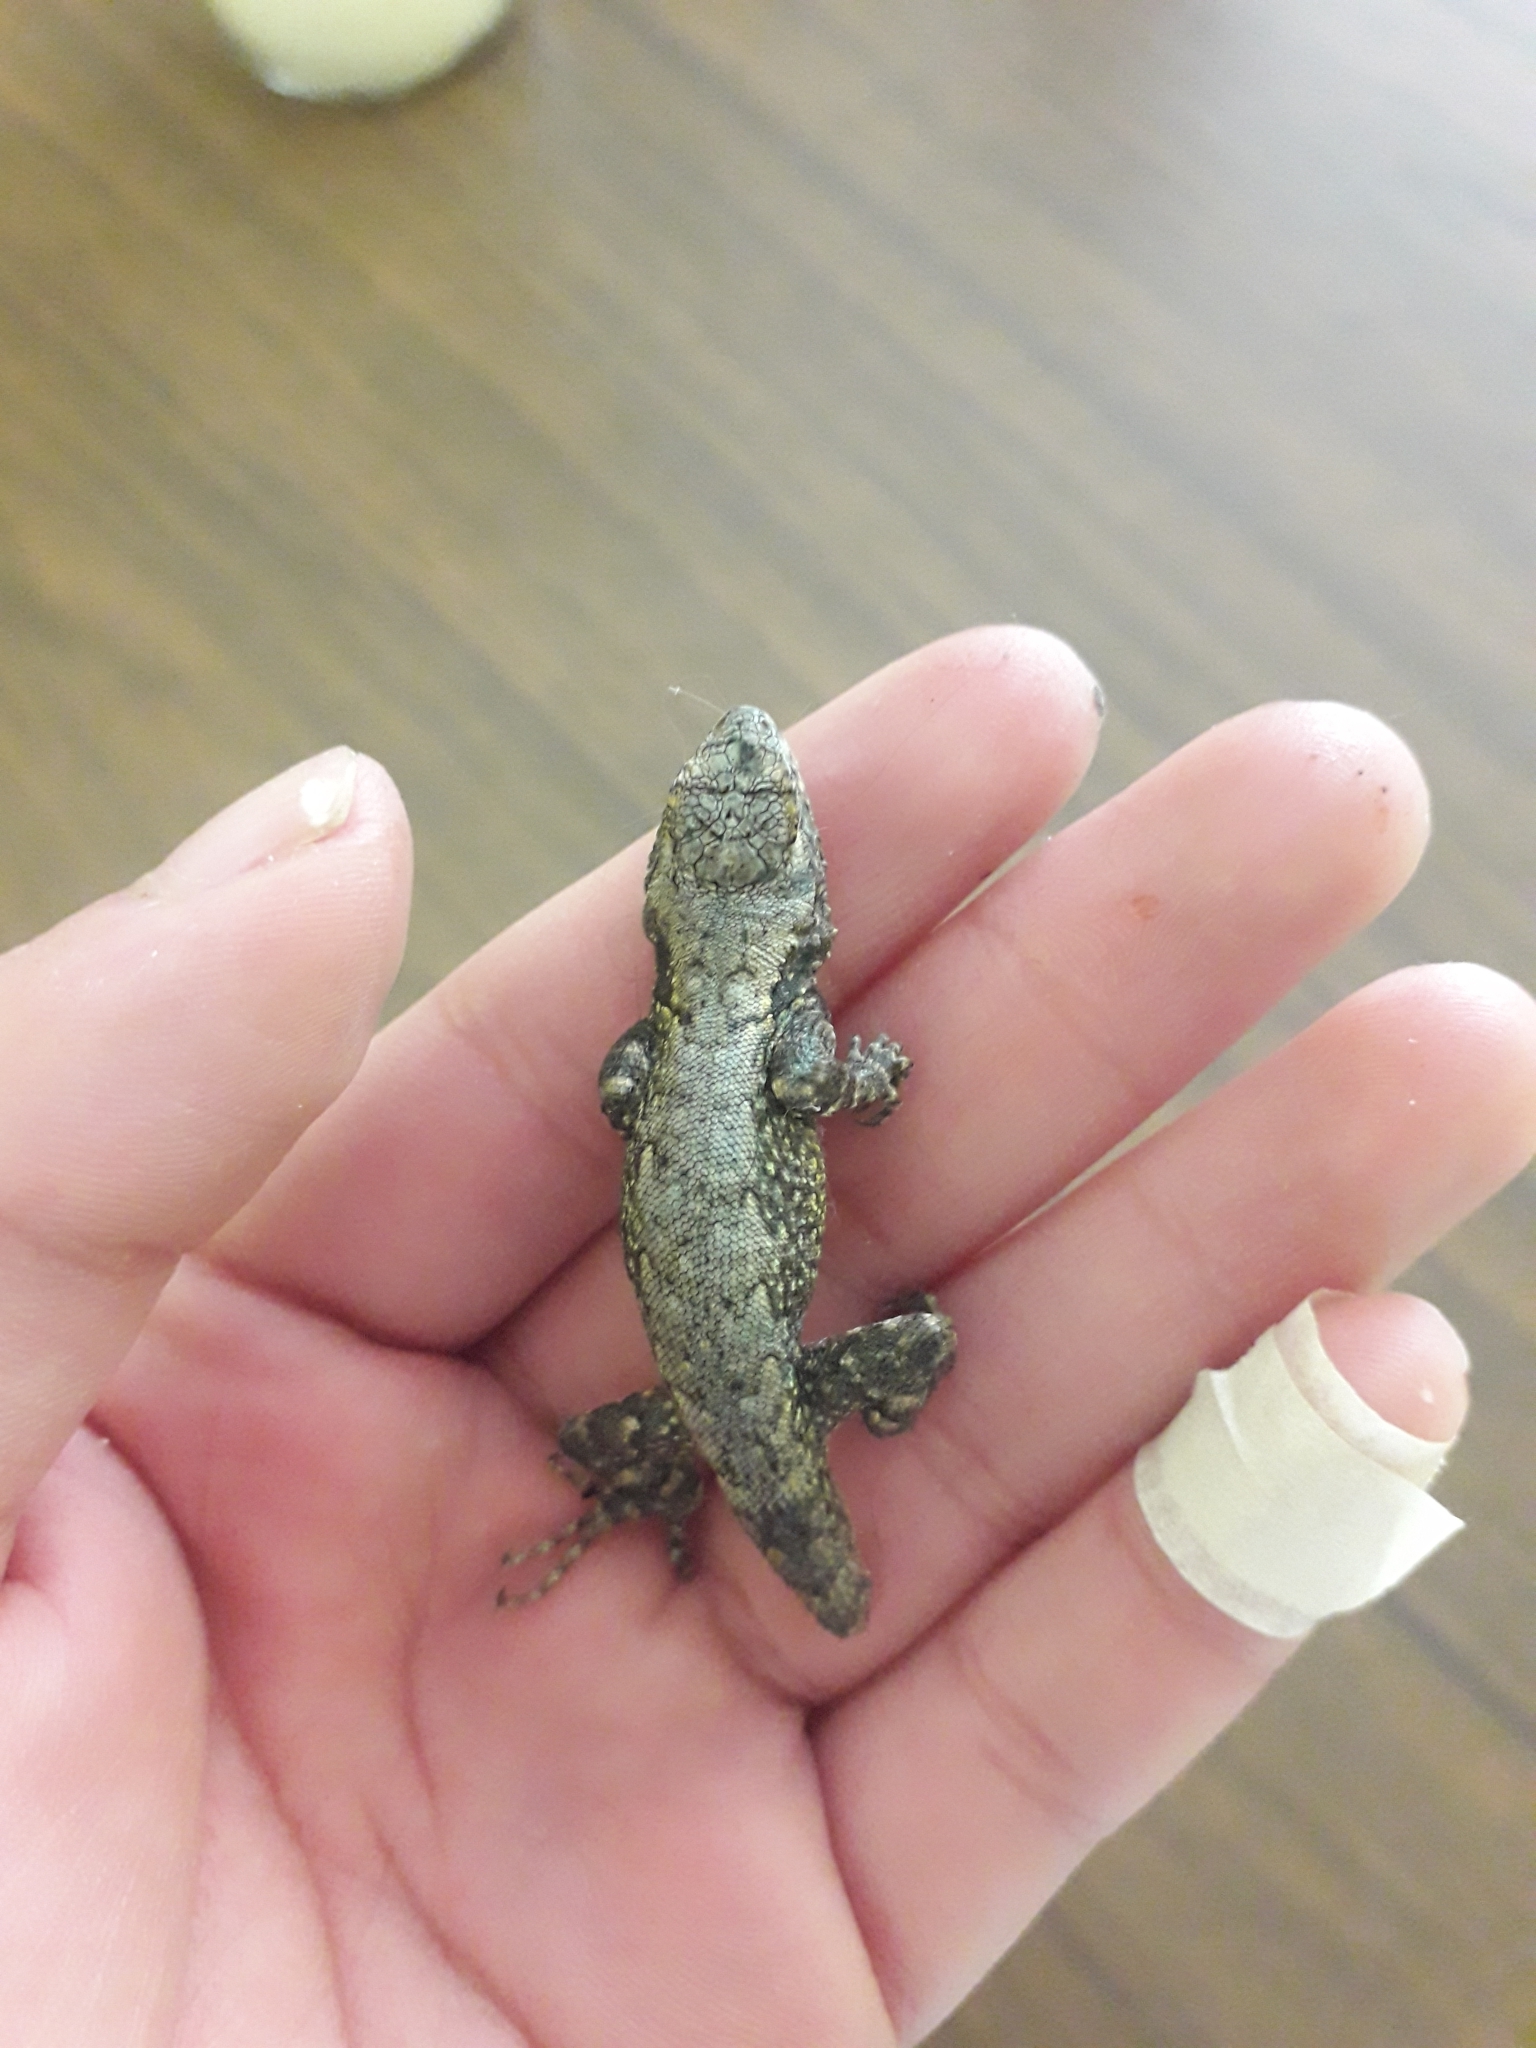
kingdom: Animalia
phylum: Chordata
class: Squamata
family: Phrynosomatidae
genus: Sceloporus
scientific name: Sceloporus grammicus
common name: Mesquite lizard
